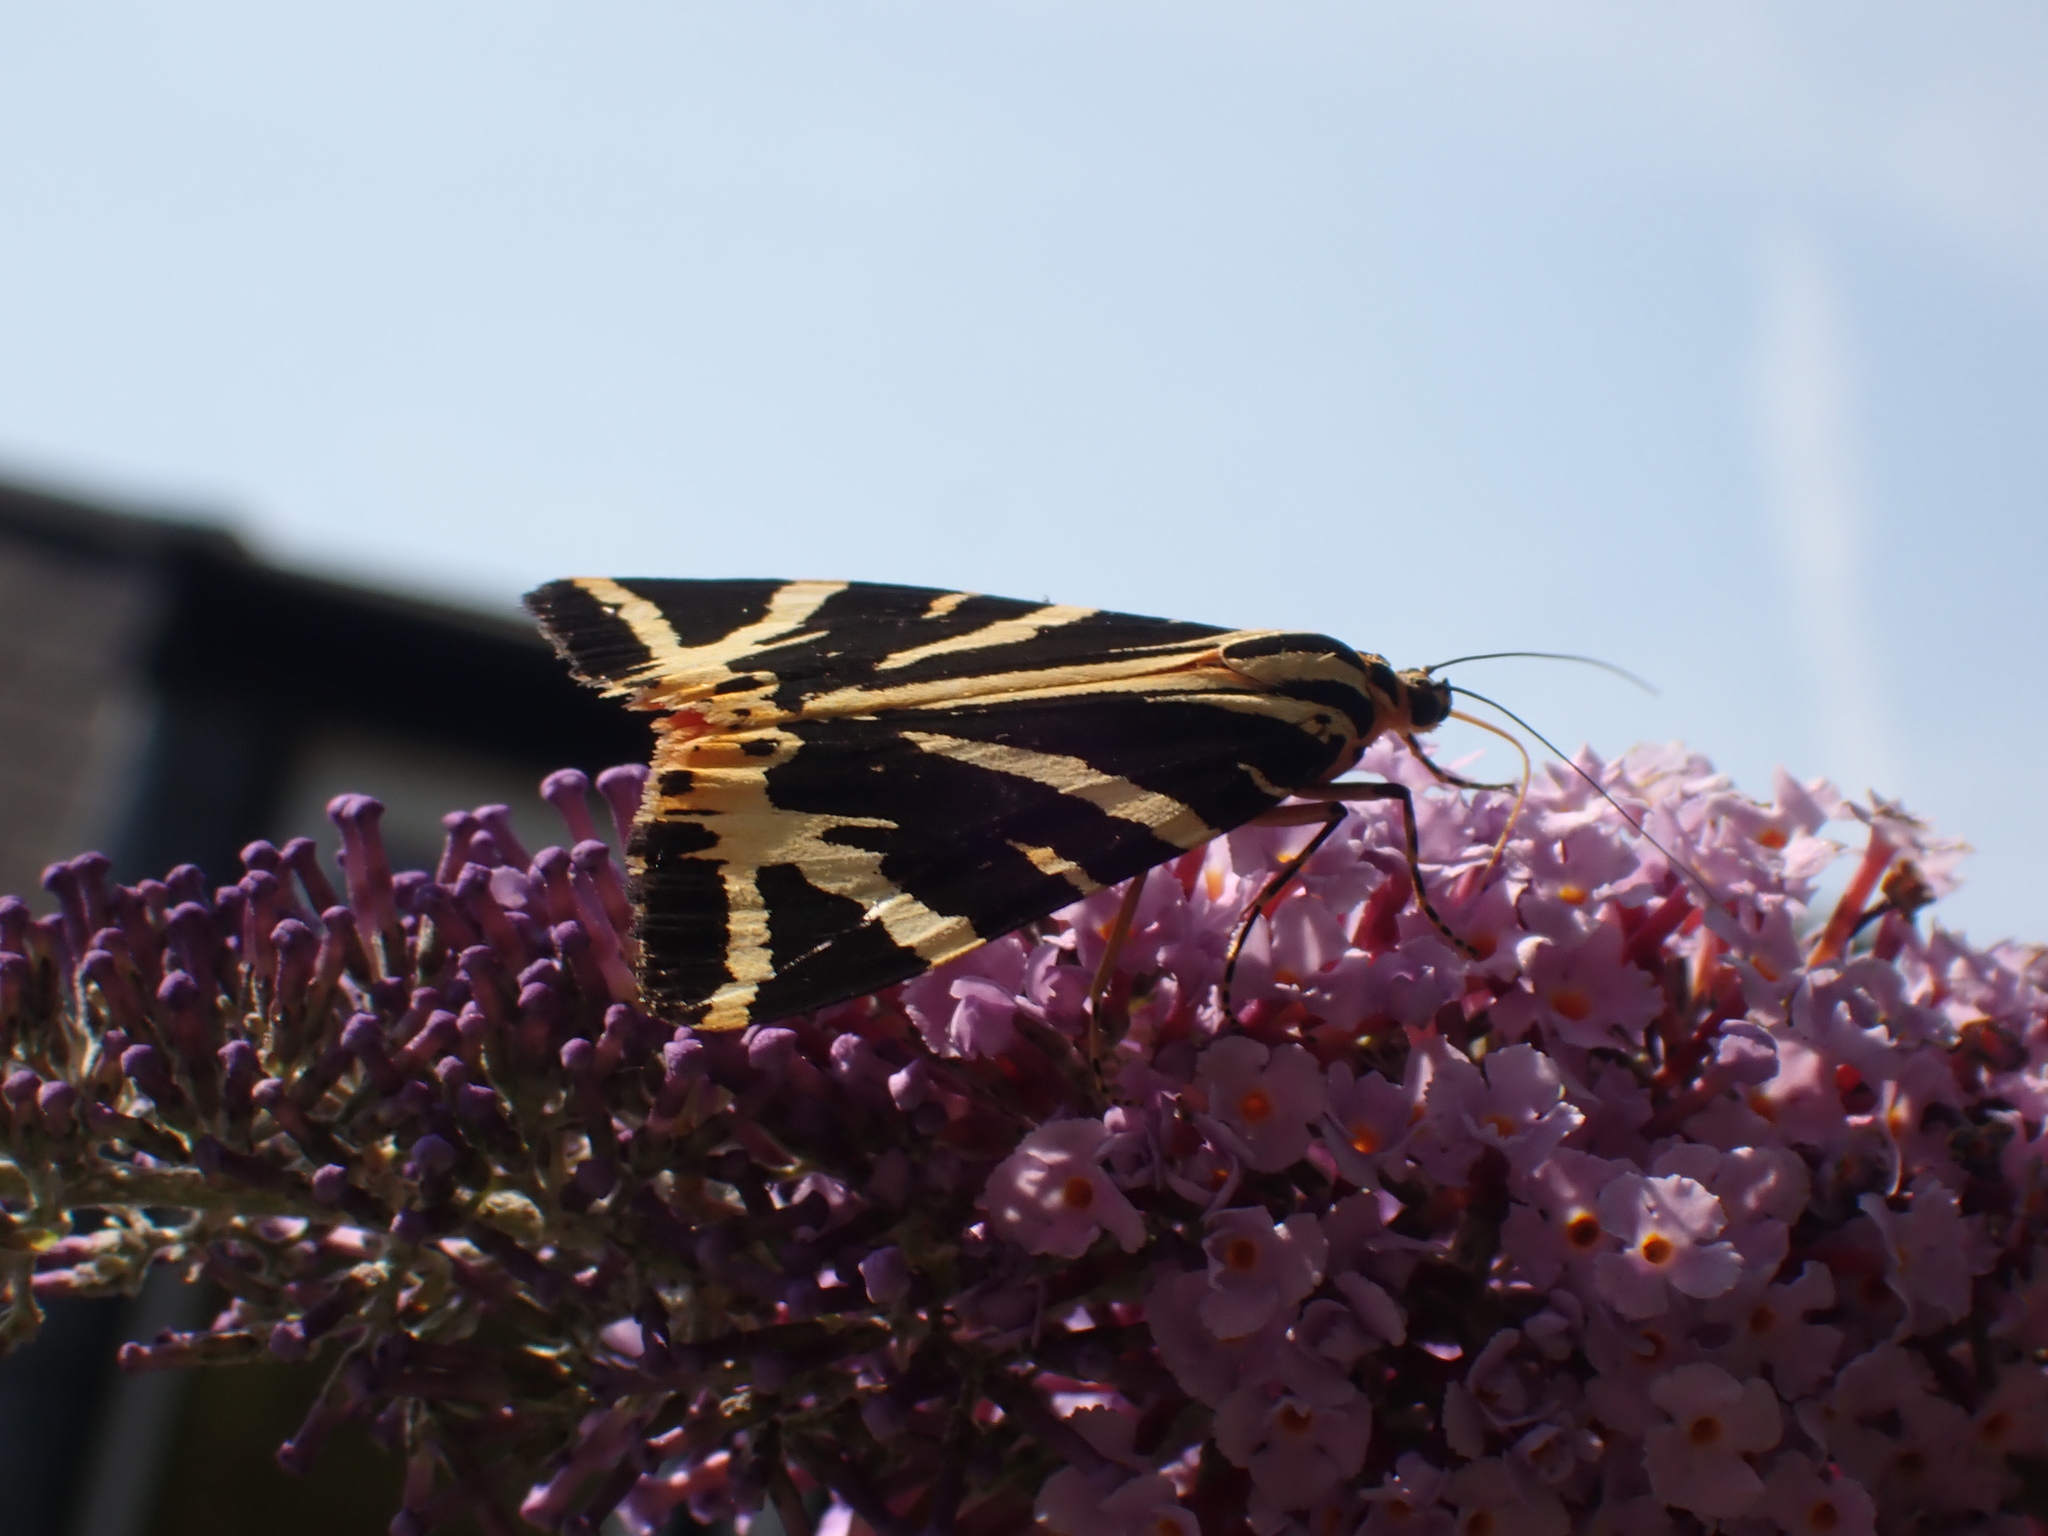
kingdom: Animalia
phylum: Arthropoda
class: Insecta
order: Lepidoptera
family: Erebidae
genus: Euplagia
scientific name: Euplagia quadripunctaria
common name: Jersey tiger
